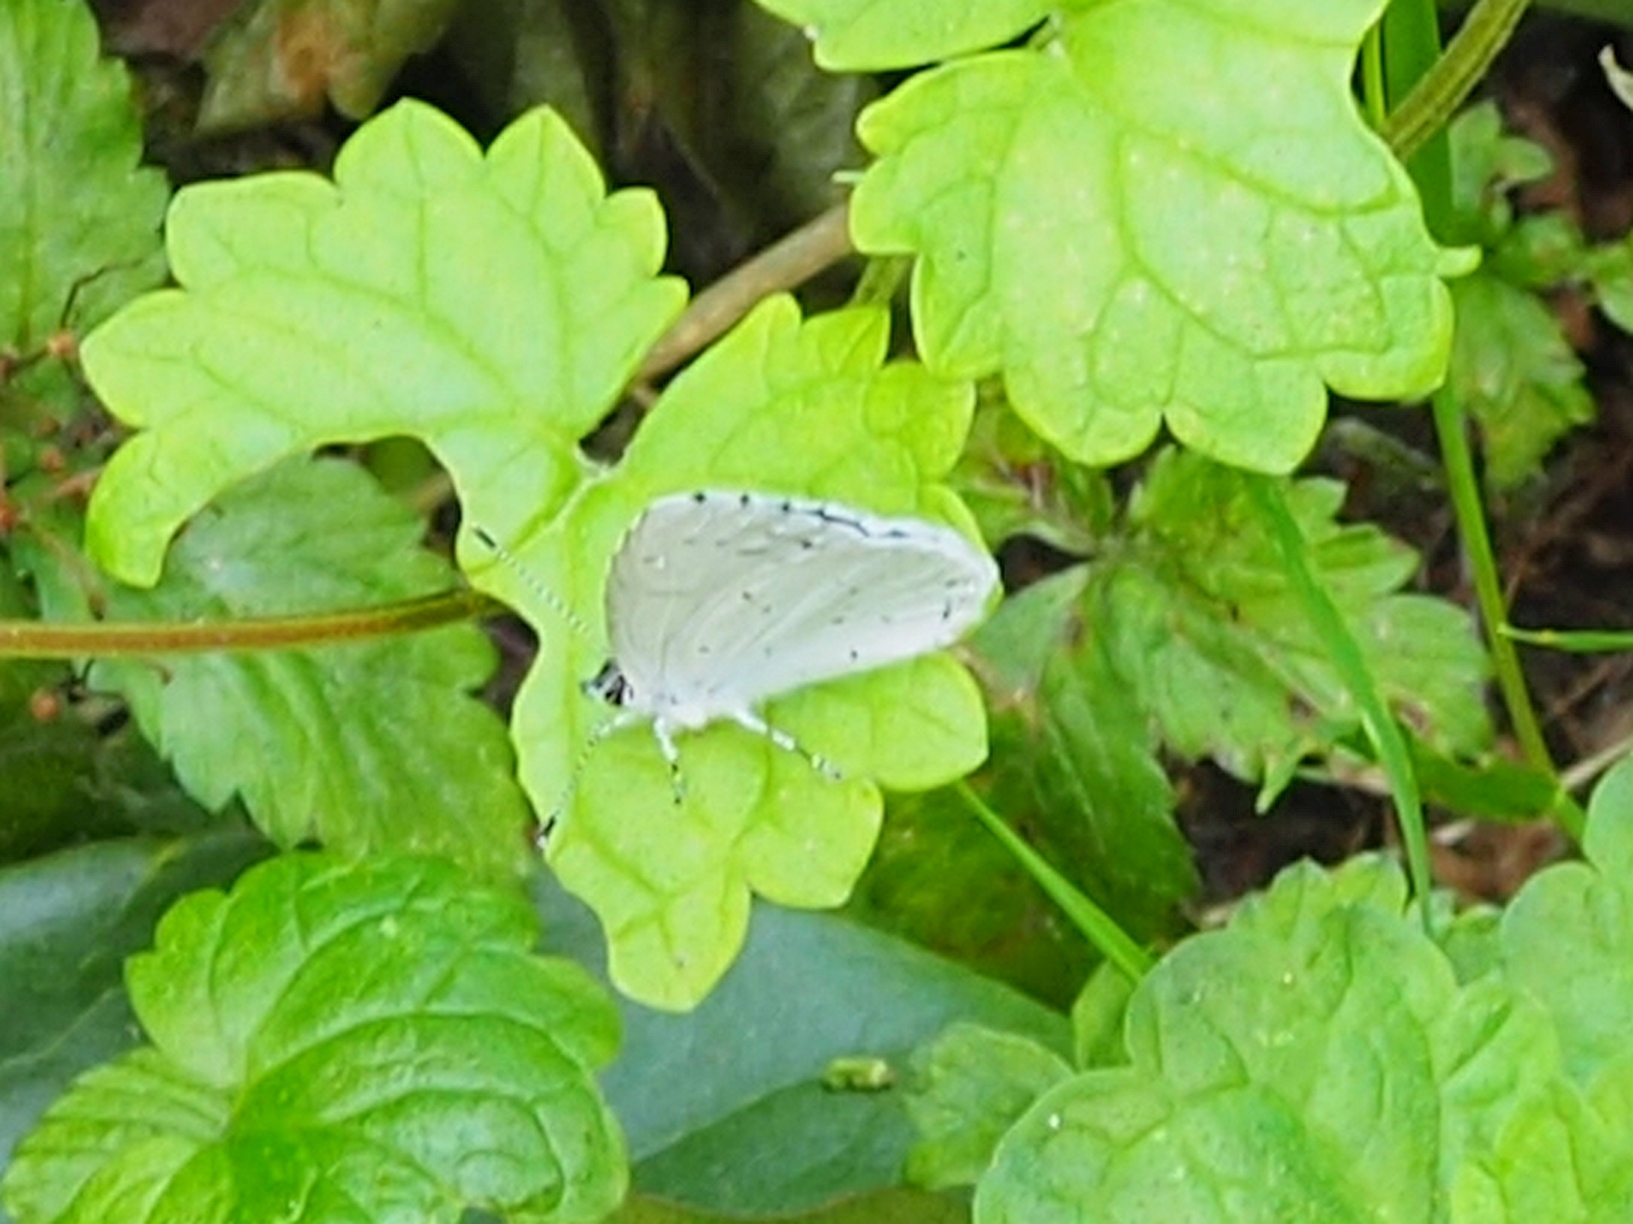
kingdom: Animalia
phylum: Arthropoda
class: Insecta
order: Lepidoptera
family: Lycaenidae
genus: Celastrina
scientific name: Celastrina argiolus
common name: Holly blue
